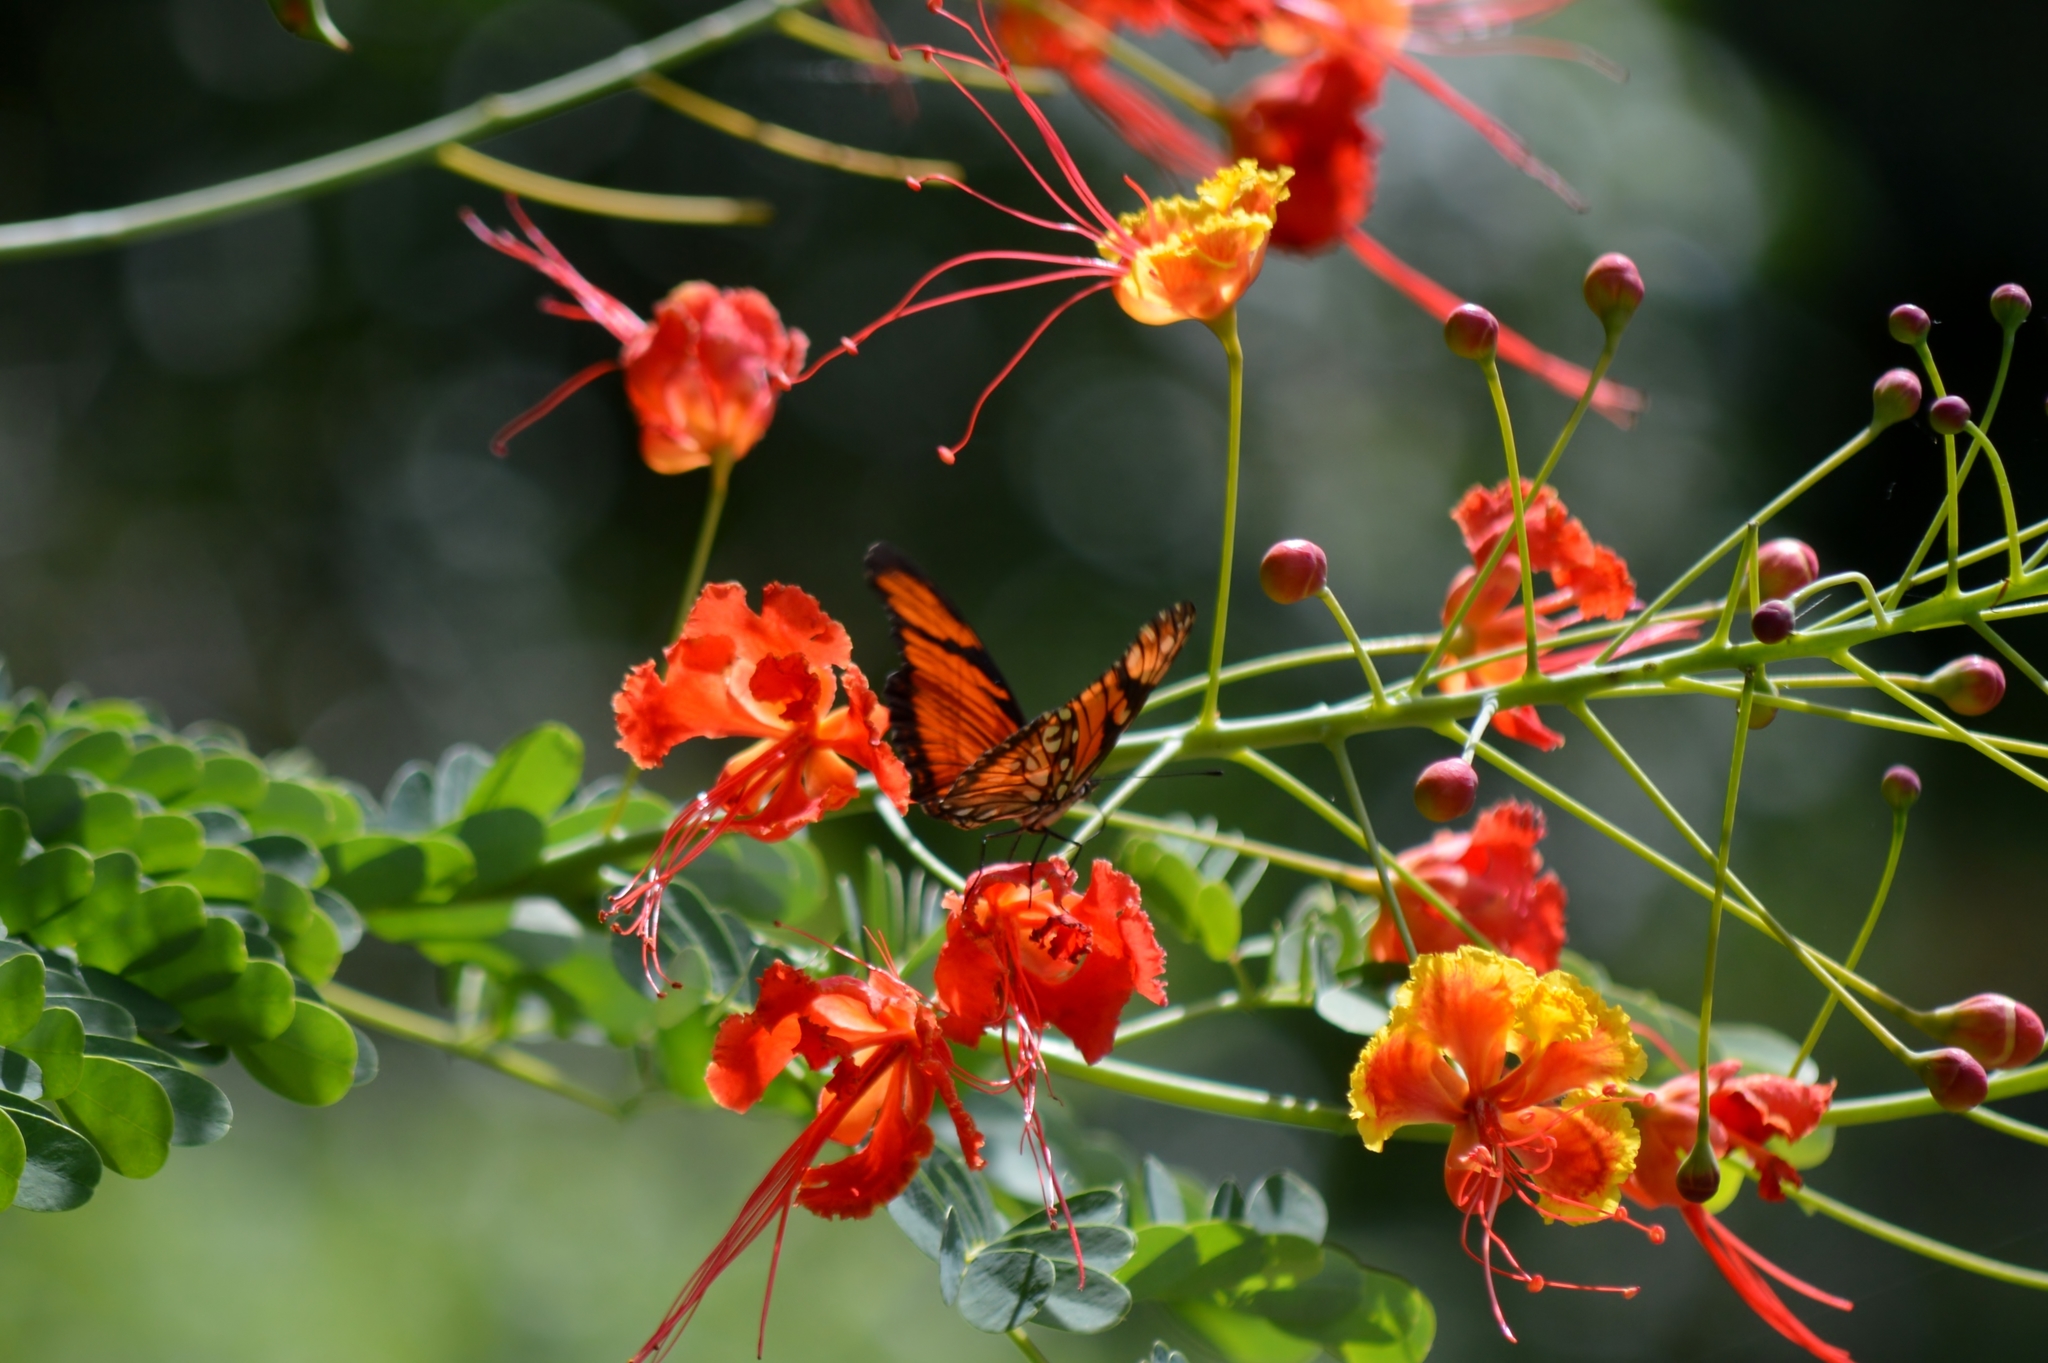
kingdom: Animalia
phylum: Arthropoda
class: Insecta
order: Lepidoptera
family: Nymphalidae
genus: Dione
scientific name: Dione juno
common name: Juno silverspot
